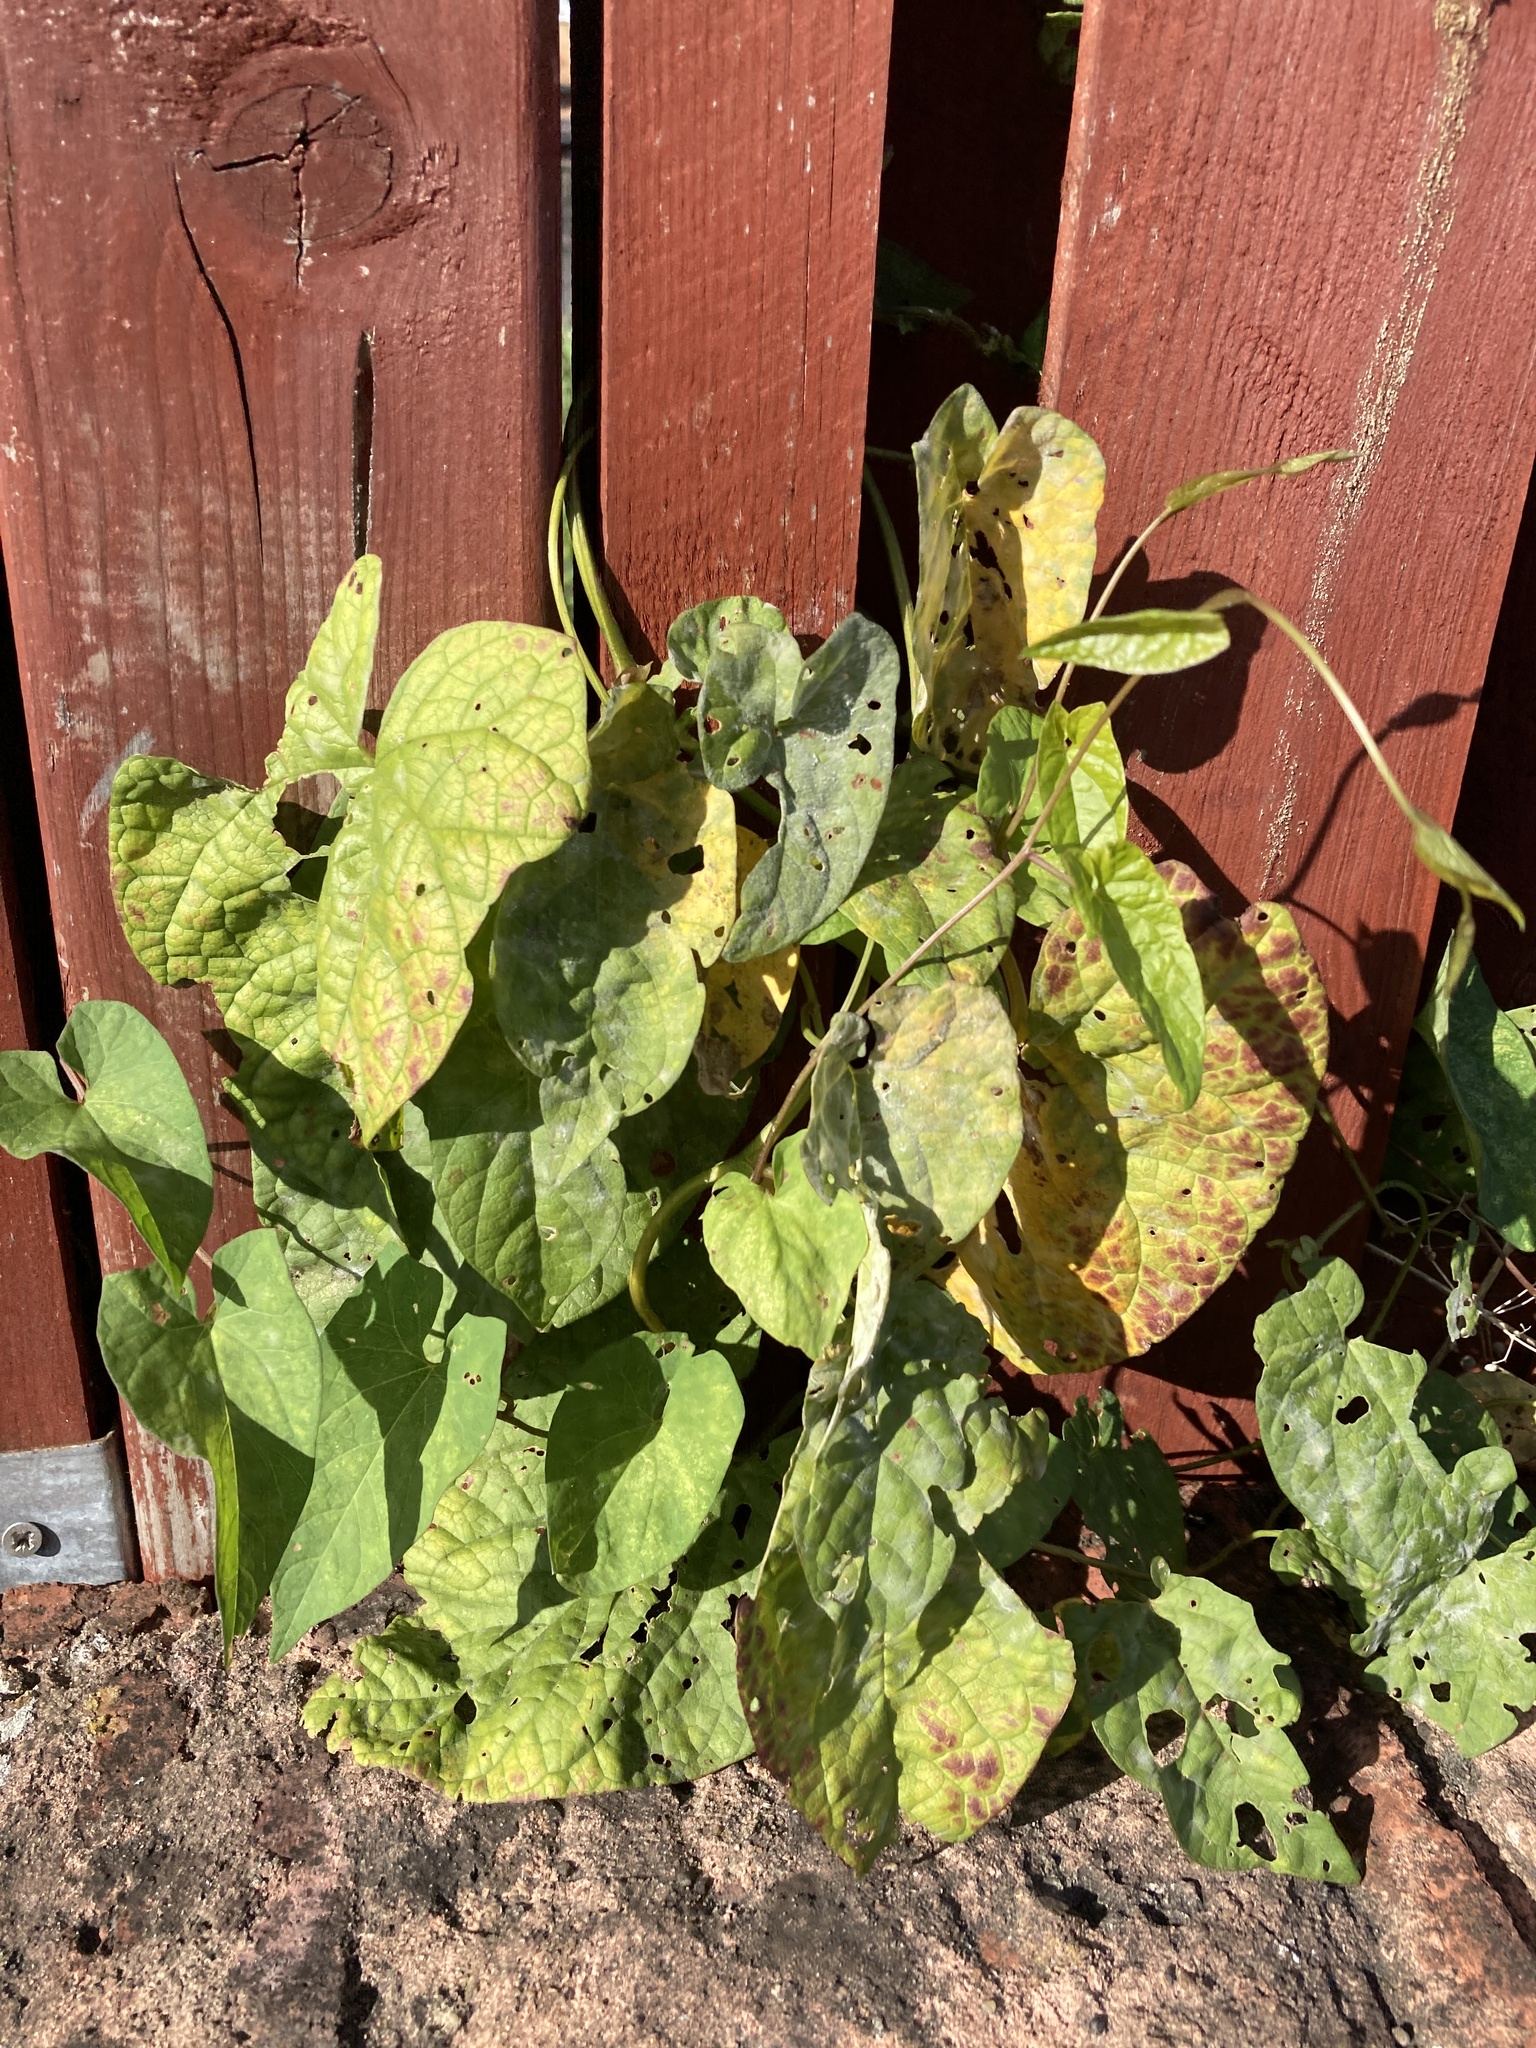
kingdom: Fungi
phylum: Ascomycota
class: Leotiomycetes
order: Helotiales
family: Erysiphaceae
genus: Erysiphe
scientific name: Erysiphe convolvuli
